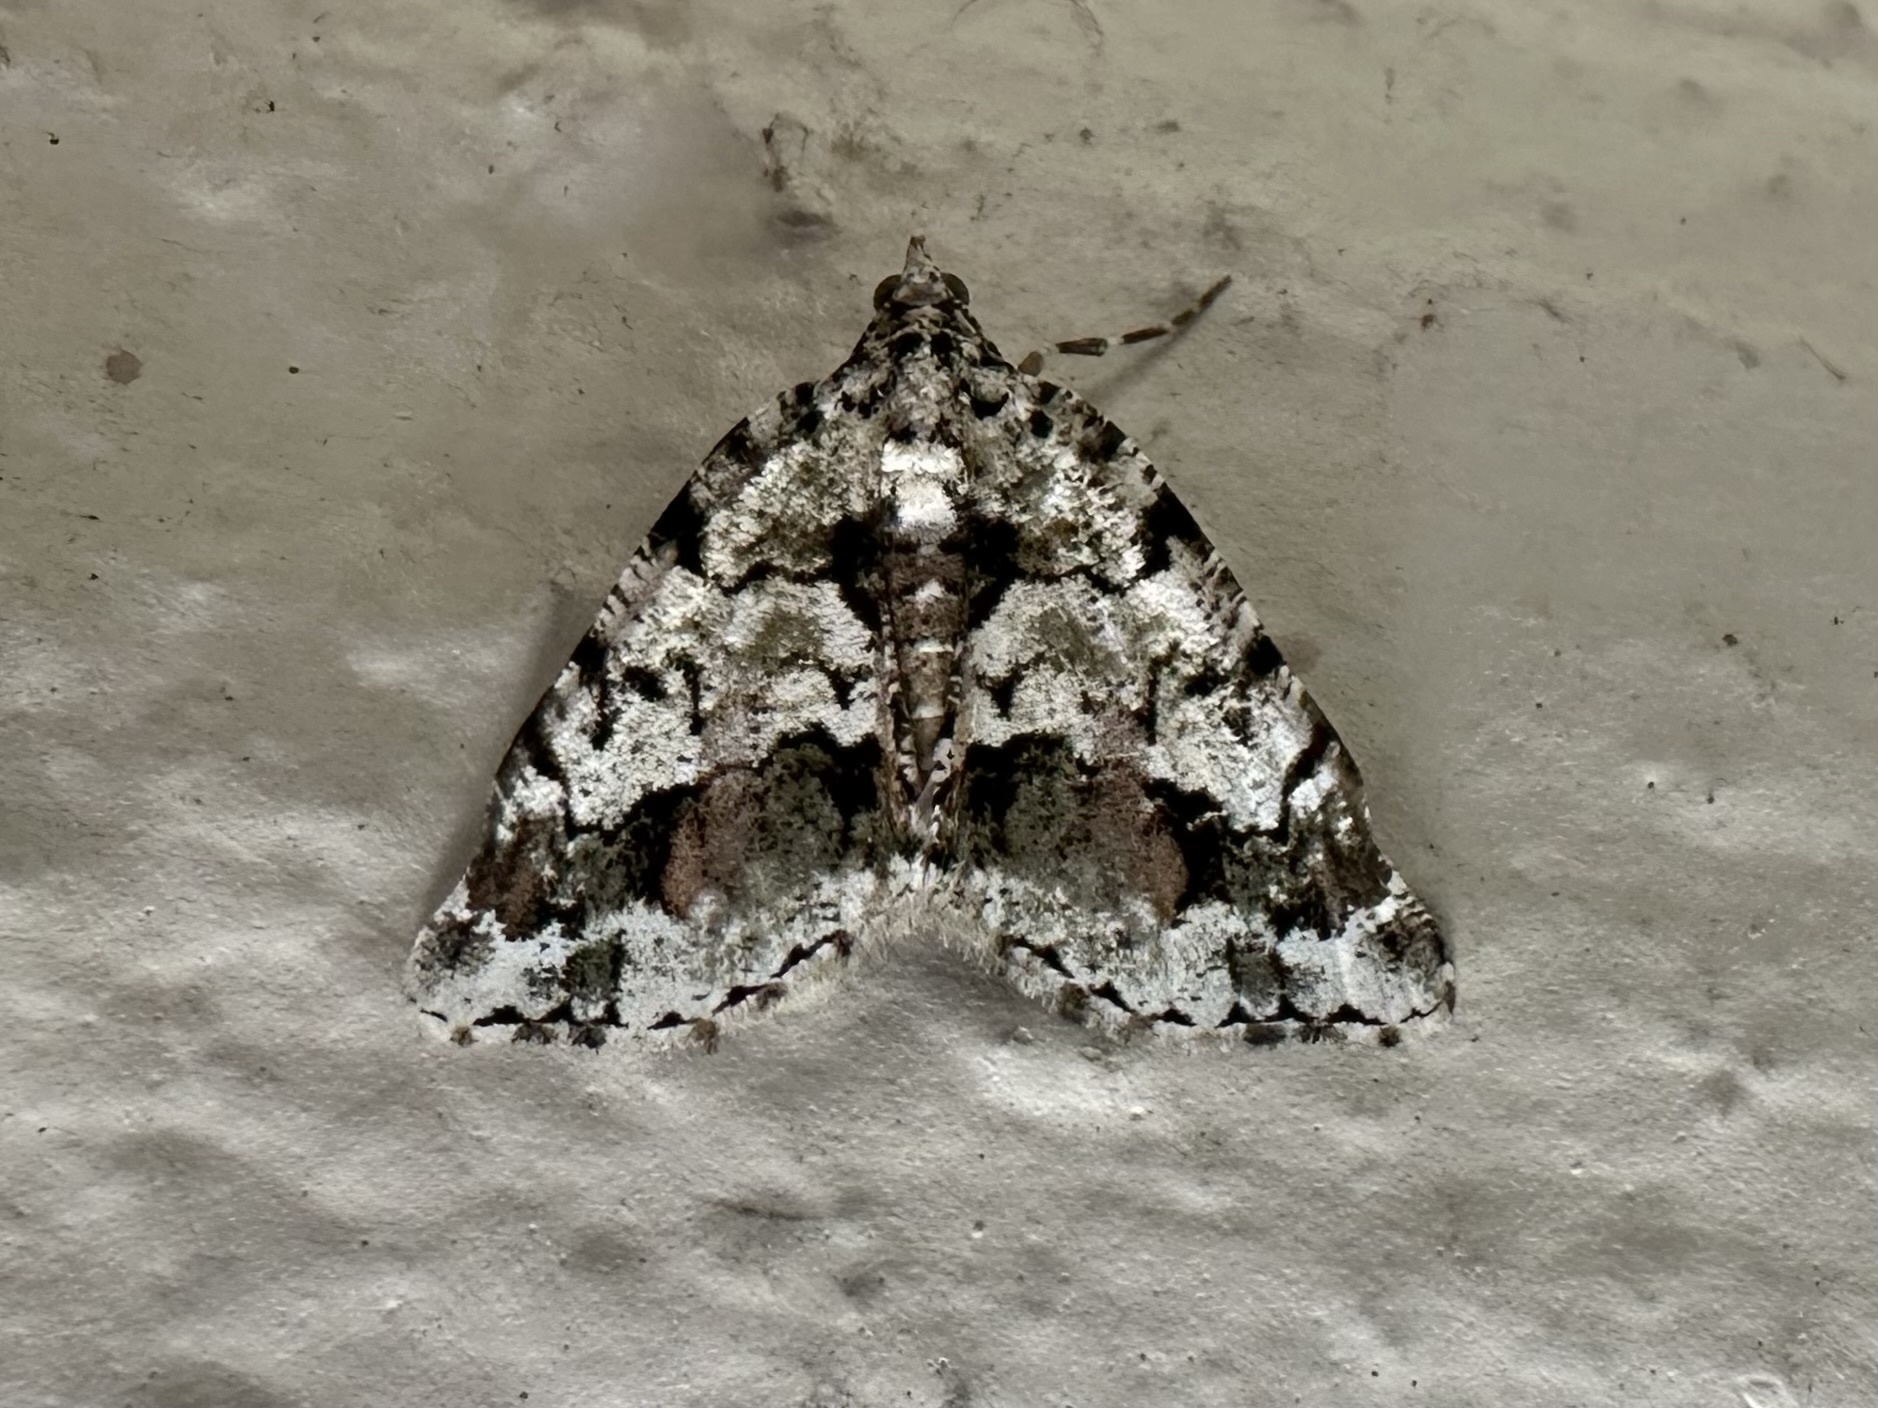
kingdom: Animalia
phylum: Arthropoda
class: Insecta
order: Lepidoptera
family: Geometridae
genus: Macaria
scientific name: Macaria graphidaria
